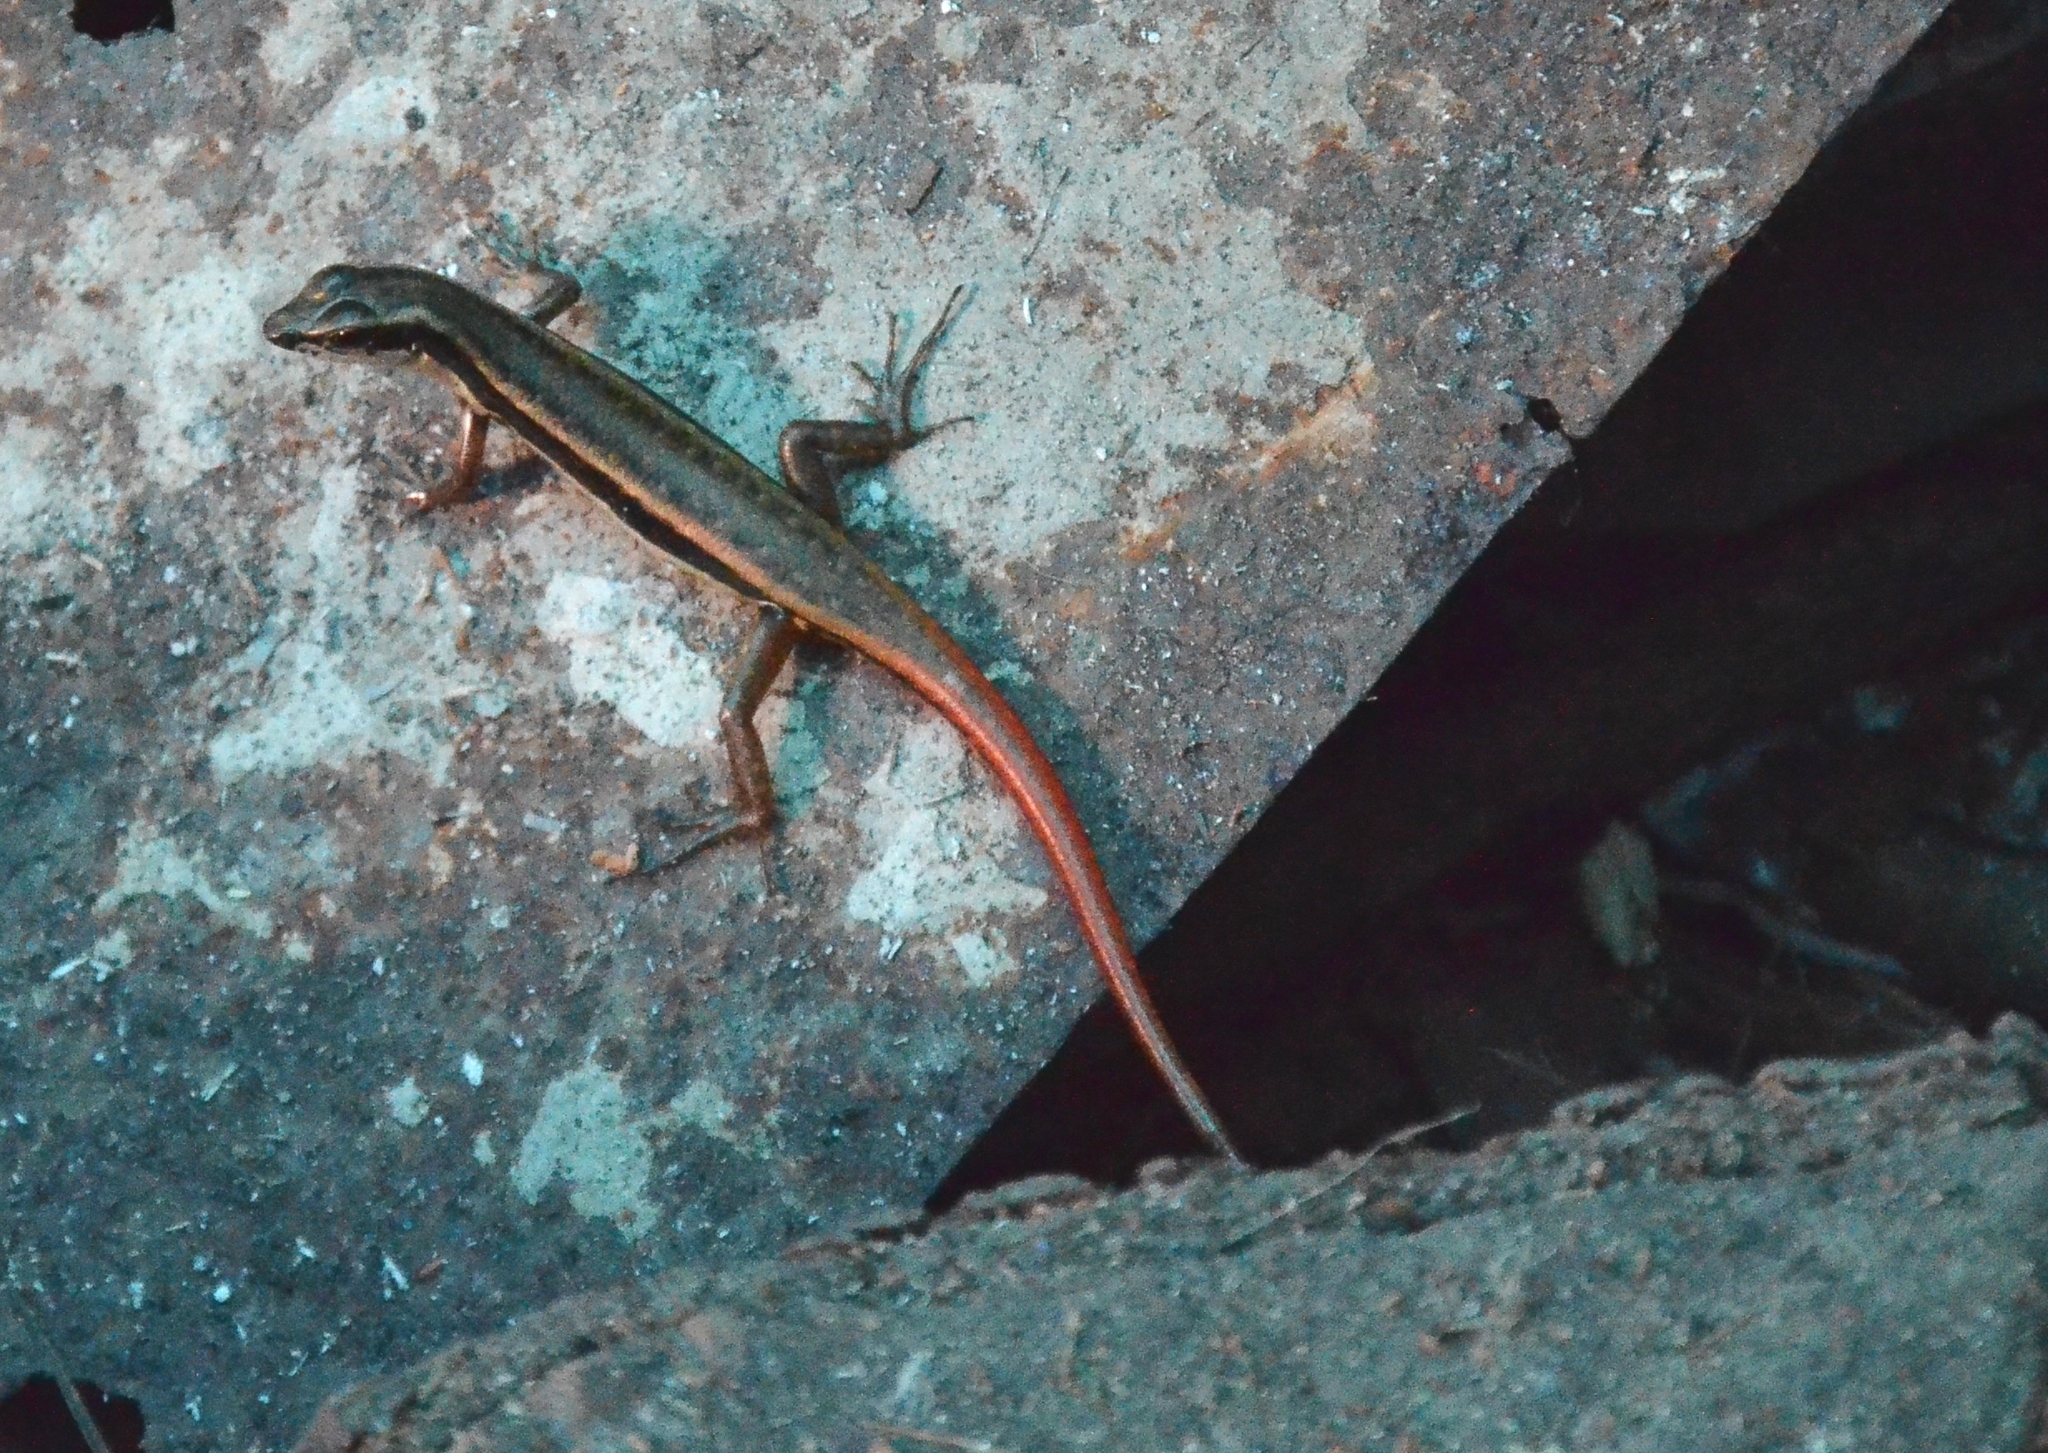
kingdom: Animalia
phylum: Chordata
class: Squamata
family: Scincidae
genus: Sphenomorphus
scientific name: Sphenomorphus dussumieri
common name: Dussumier's forest skink
